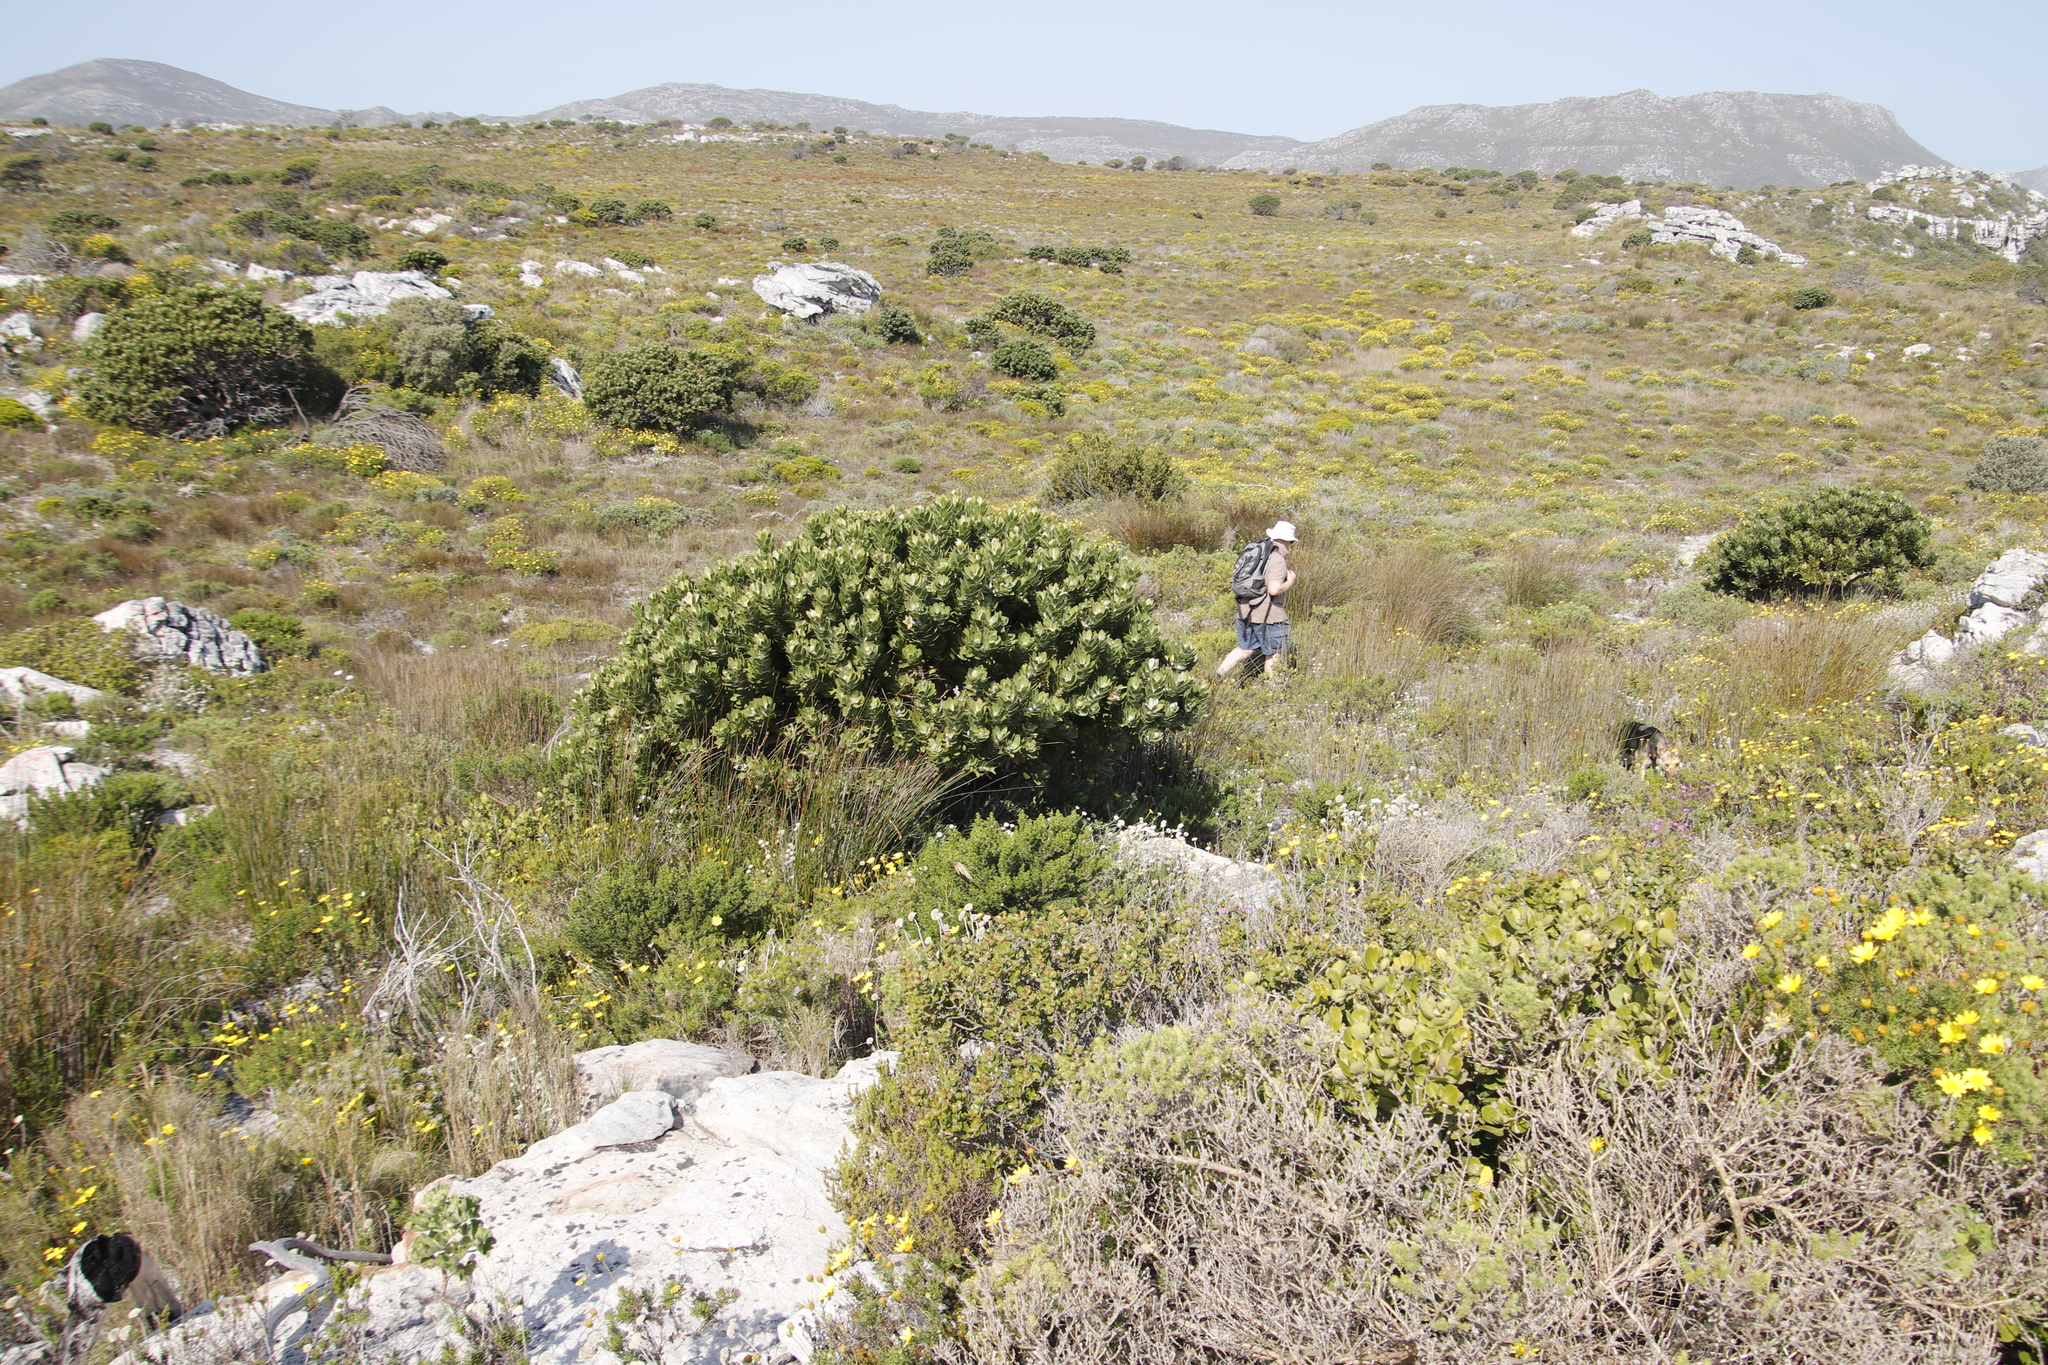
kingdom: Plantae
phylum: Tracheophyta
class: Magnoliopsida
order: Proteales
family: Proteaceae
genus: Leucospermum
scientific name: Leucospermum conocarpodendron
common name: Tree pincushion
